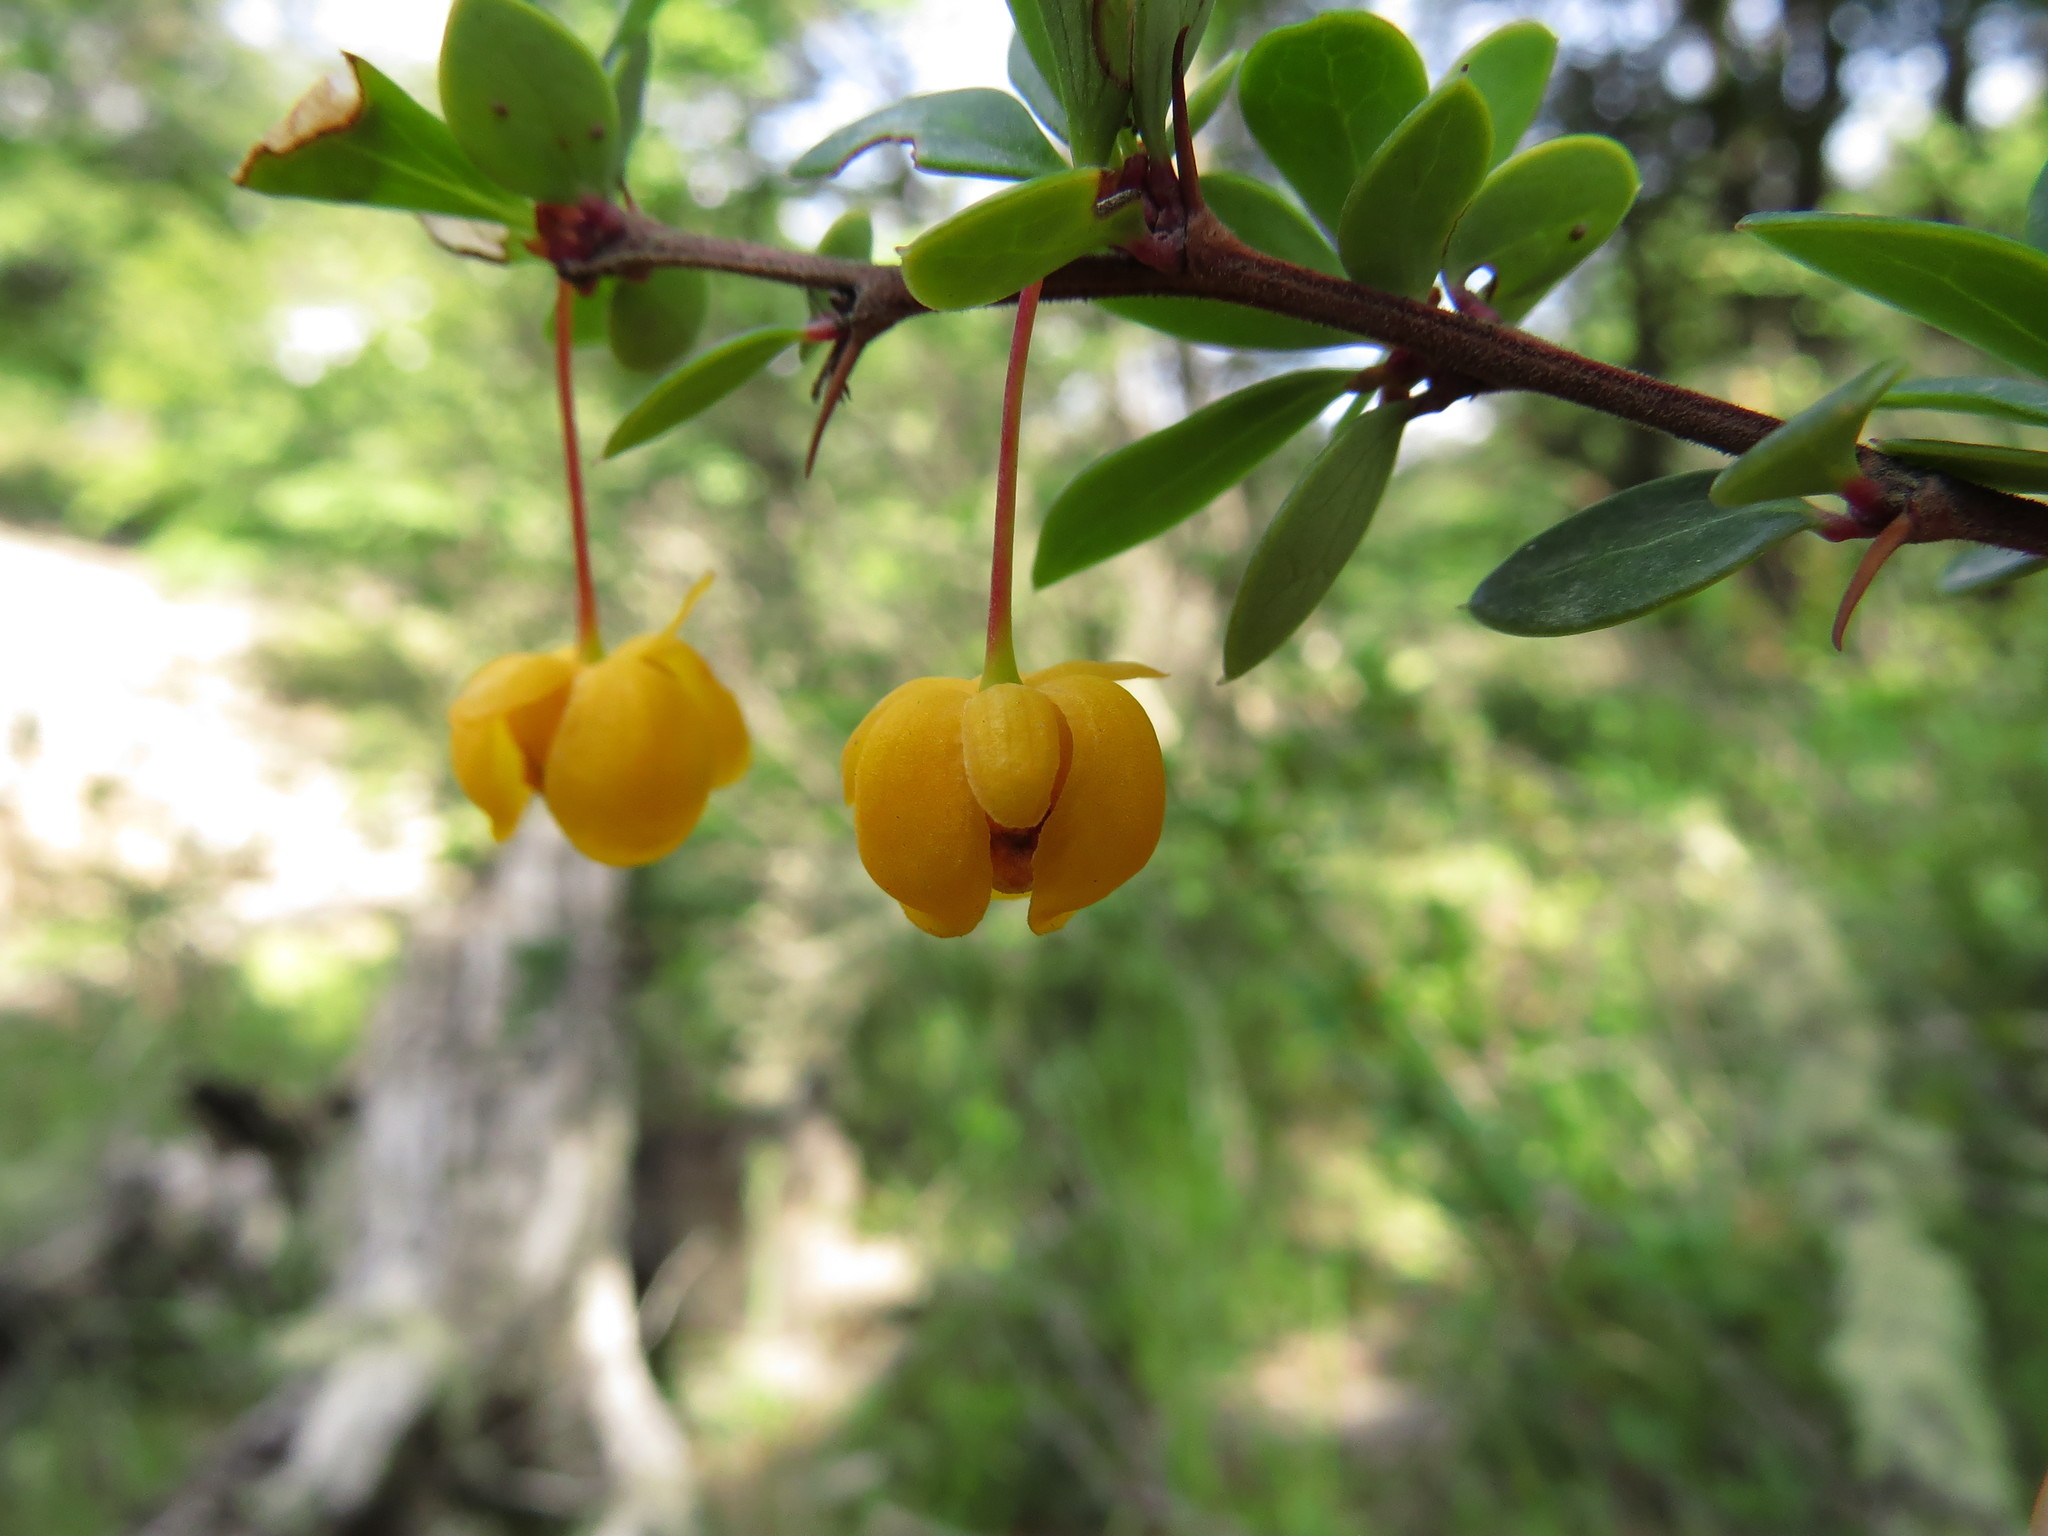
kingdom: Plantae
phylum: Tracheophyta
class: Magnoliopsida
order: Ranunculales
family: Berberidaceae
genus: Berberis
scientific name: Berberis microphylla
